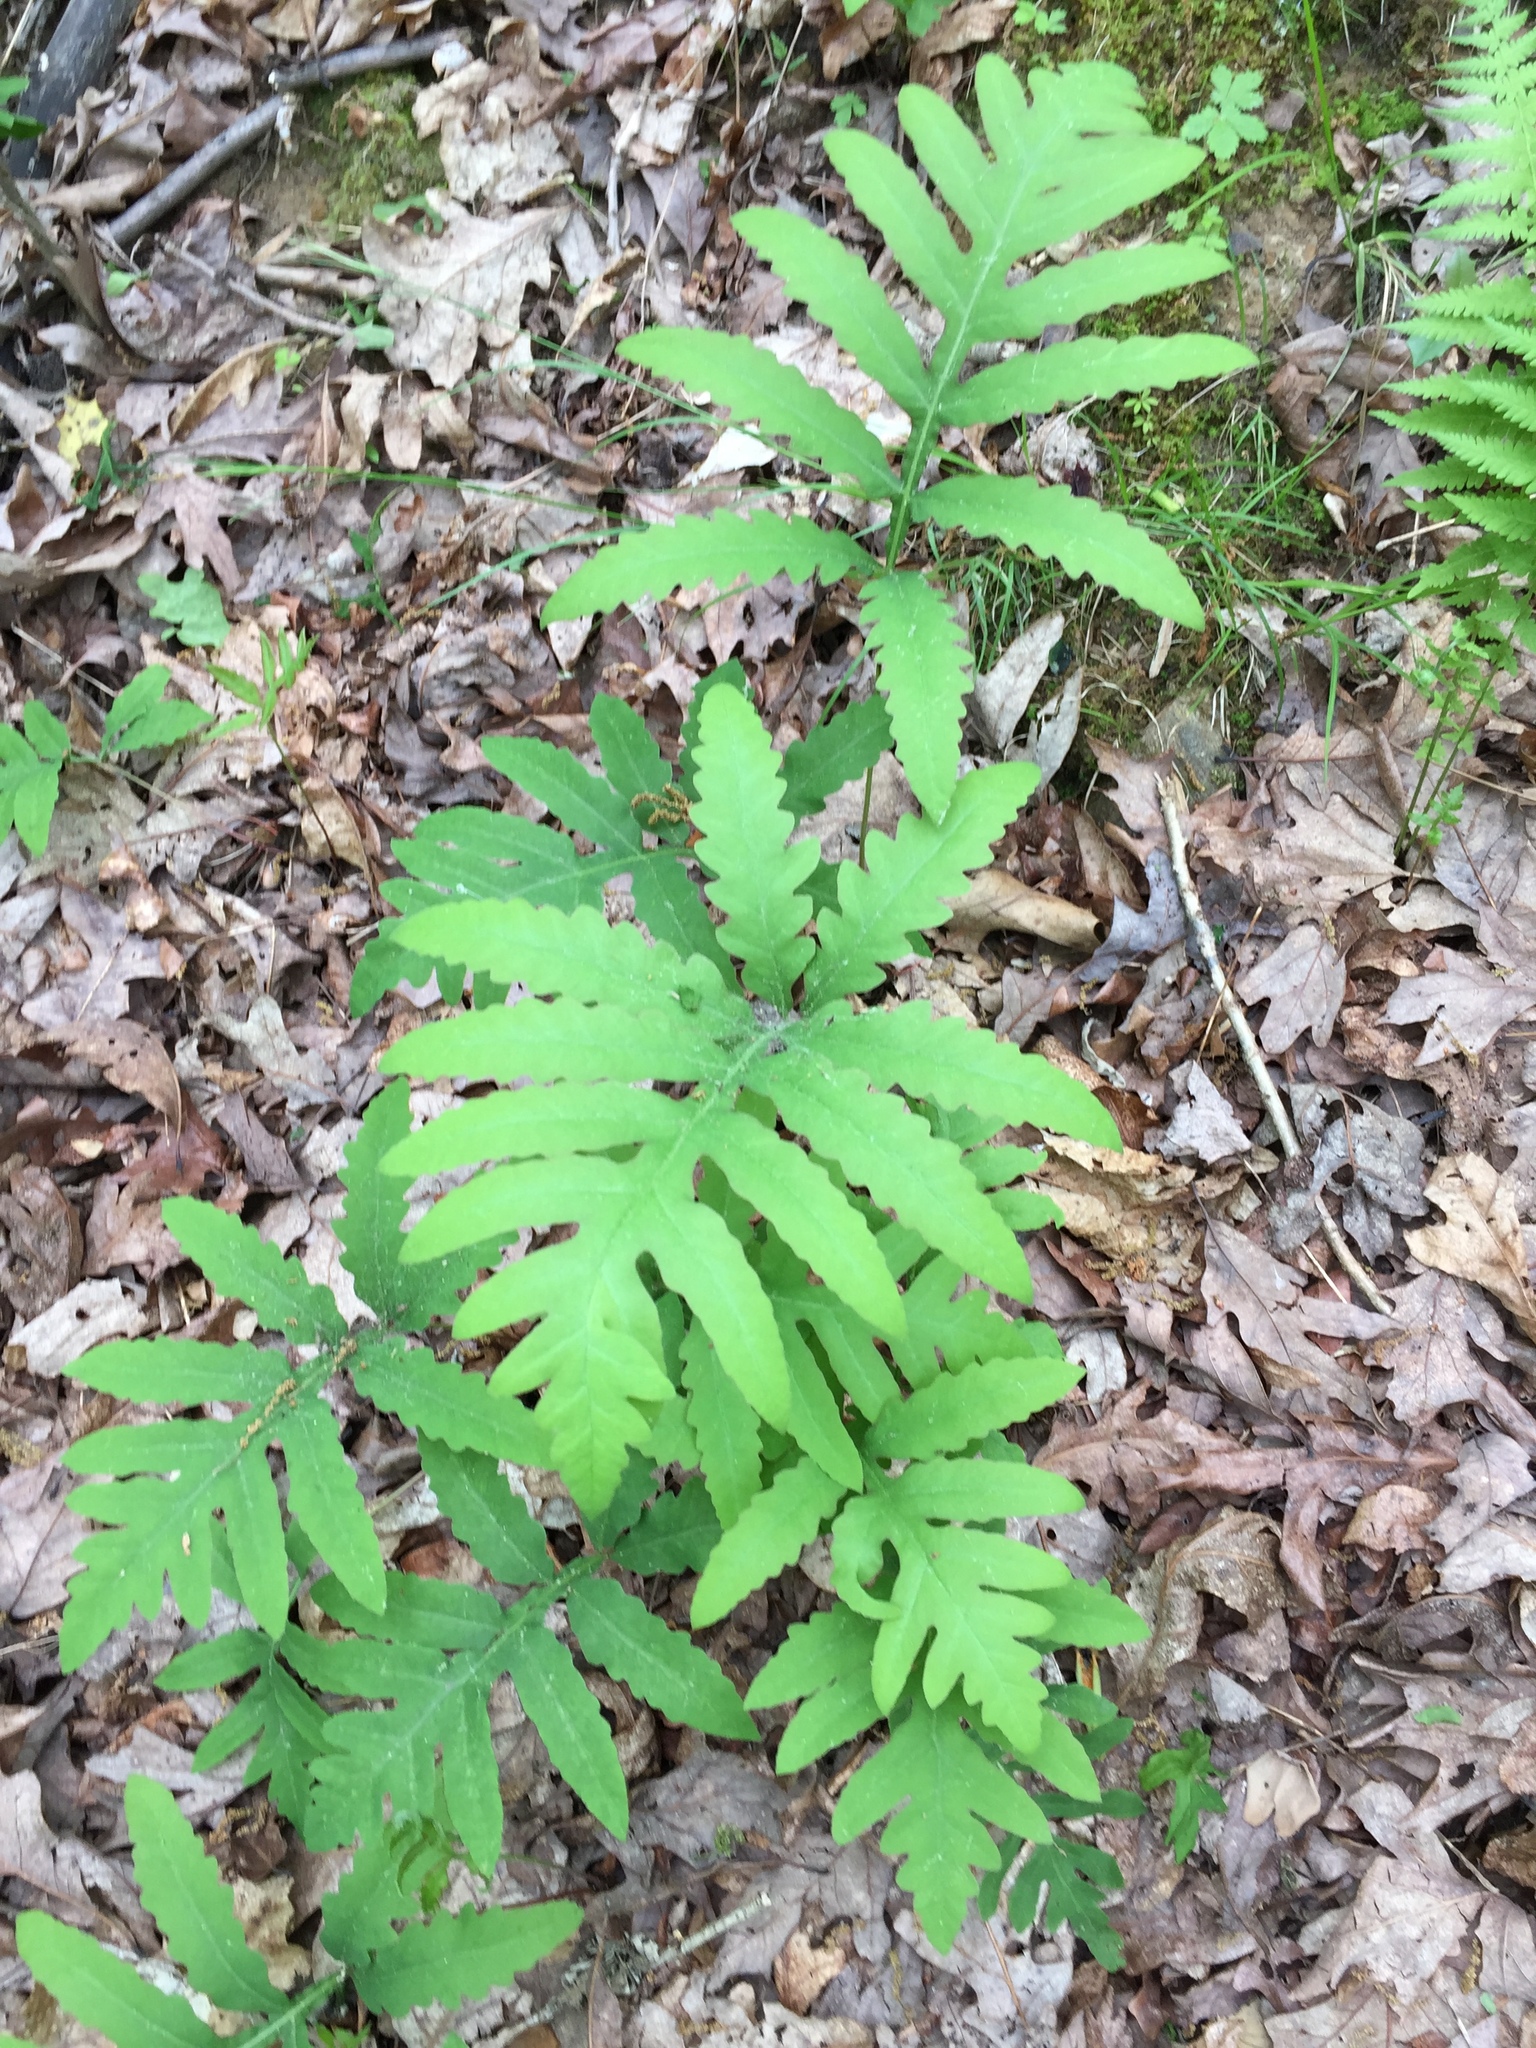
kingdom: Plantae
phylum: Tracheophyta
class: Polypodiopsida
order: Polypodiales
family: Onocleaceae
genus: Onoclea
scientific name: Onoclea sensibilis
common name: Sensitive fern
